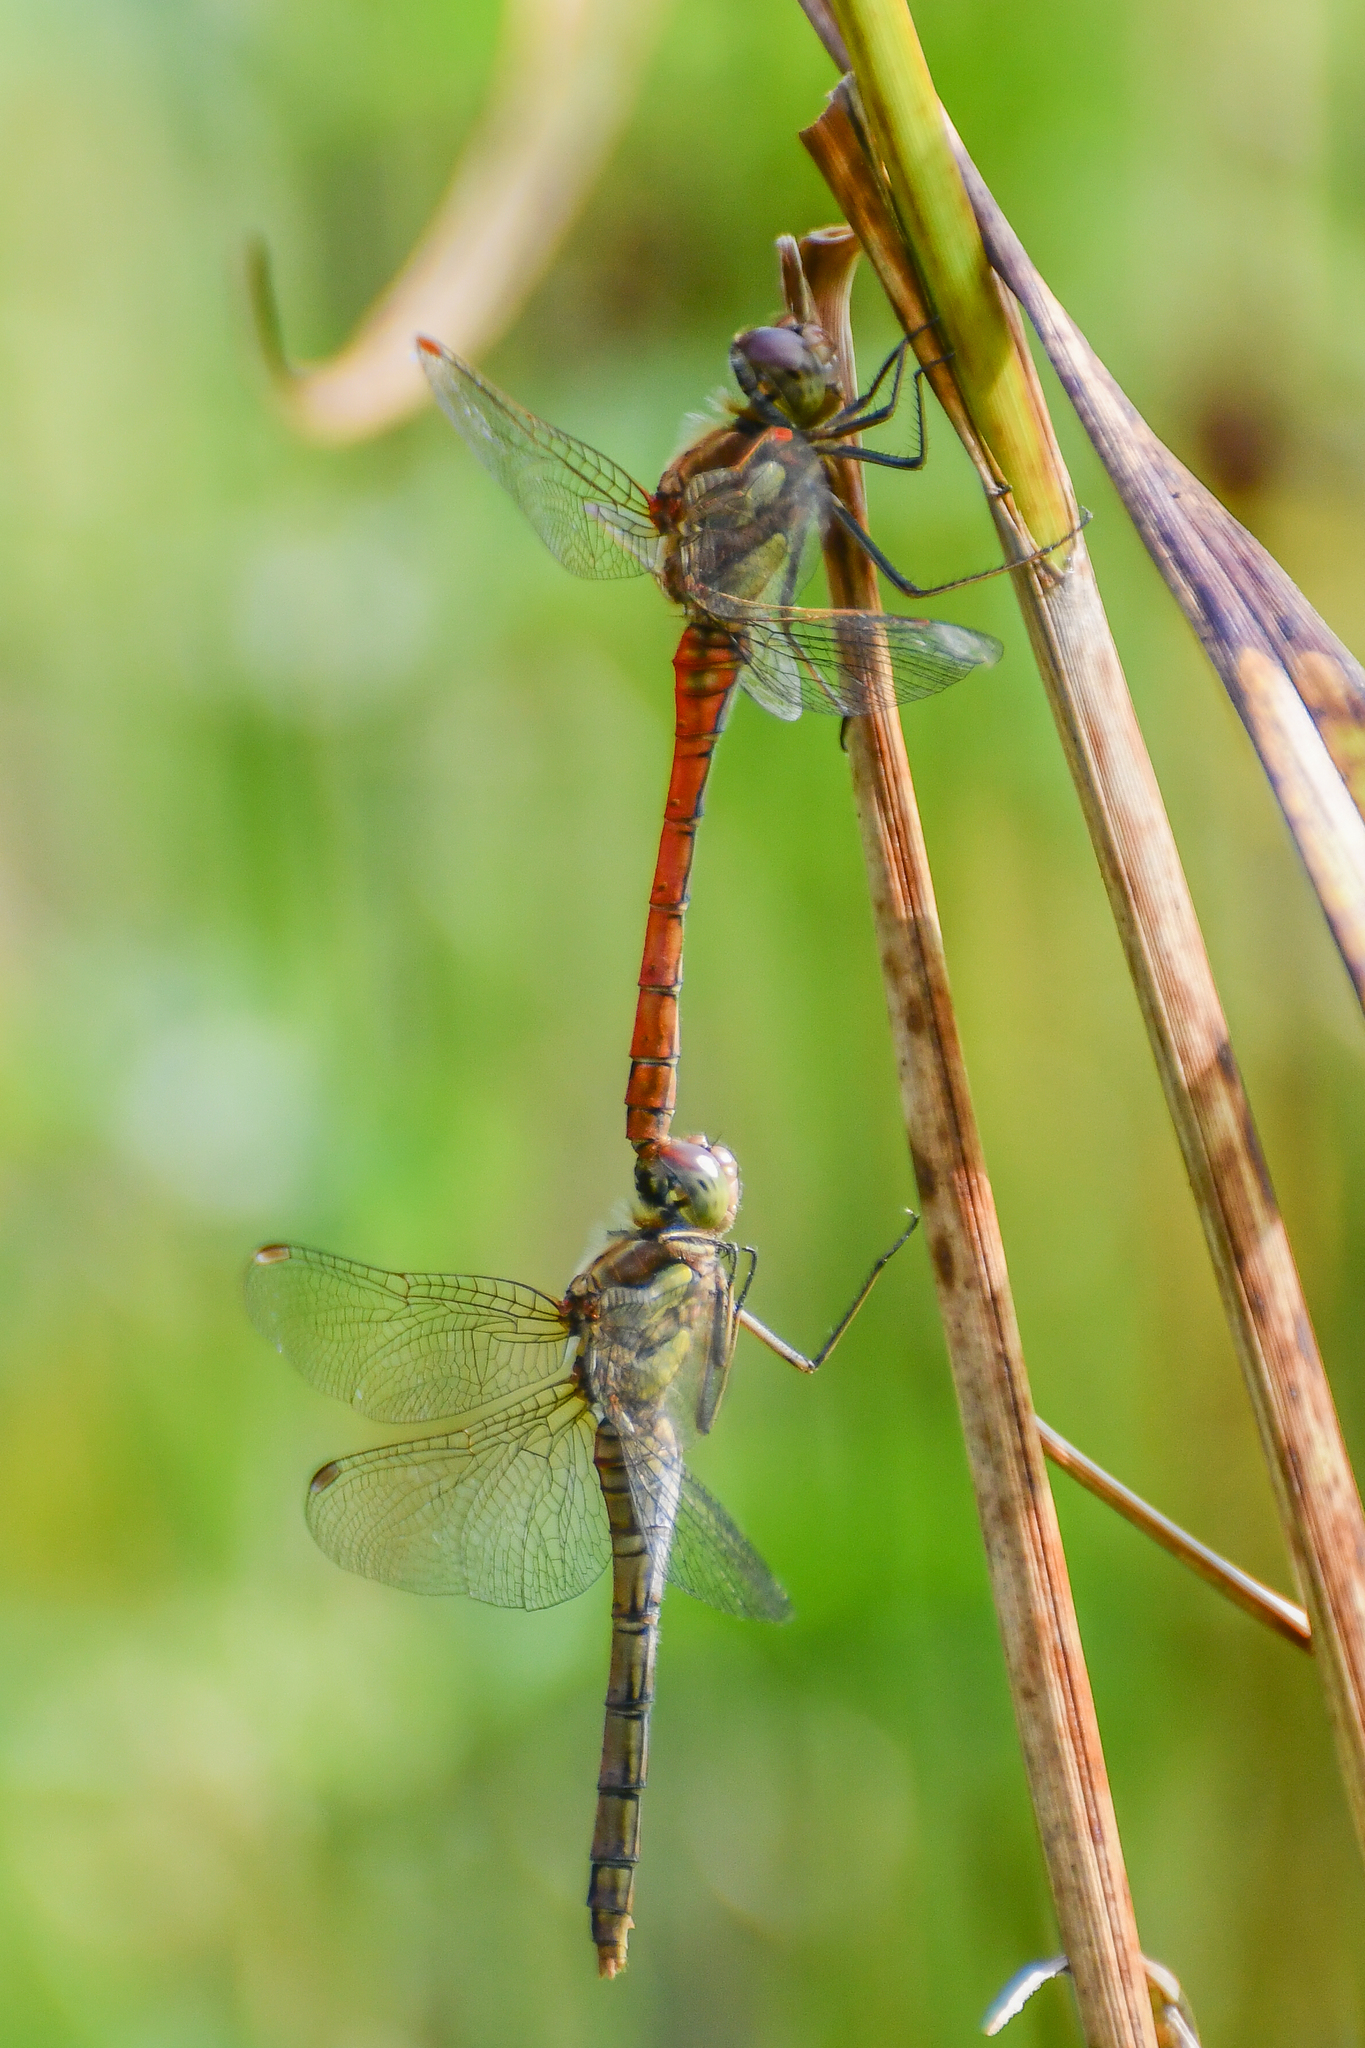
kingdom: Animalia
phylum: Arthropoda
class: Insecta
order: Odonata
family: Libellulidae
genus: Sympetrum
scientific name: Sympetrum striolatum
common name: Common darter
